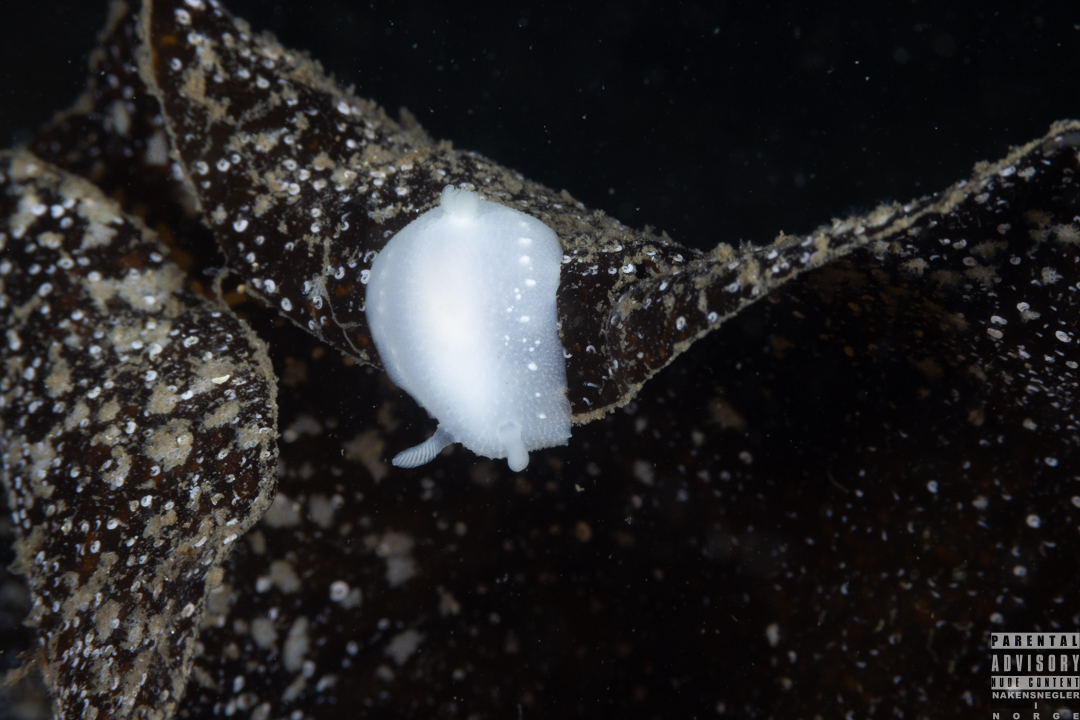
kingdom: Animalia
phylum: Mollusca
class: Gastropoda
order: Nudibranchia
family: Cadlinidae
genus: Cadlina
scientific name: Cadlina laevis
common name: White atlantic cadlina
